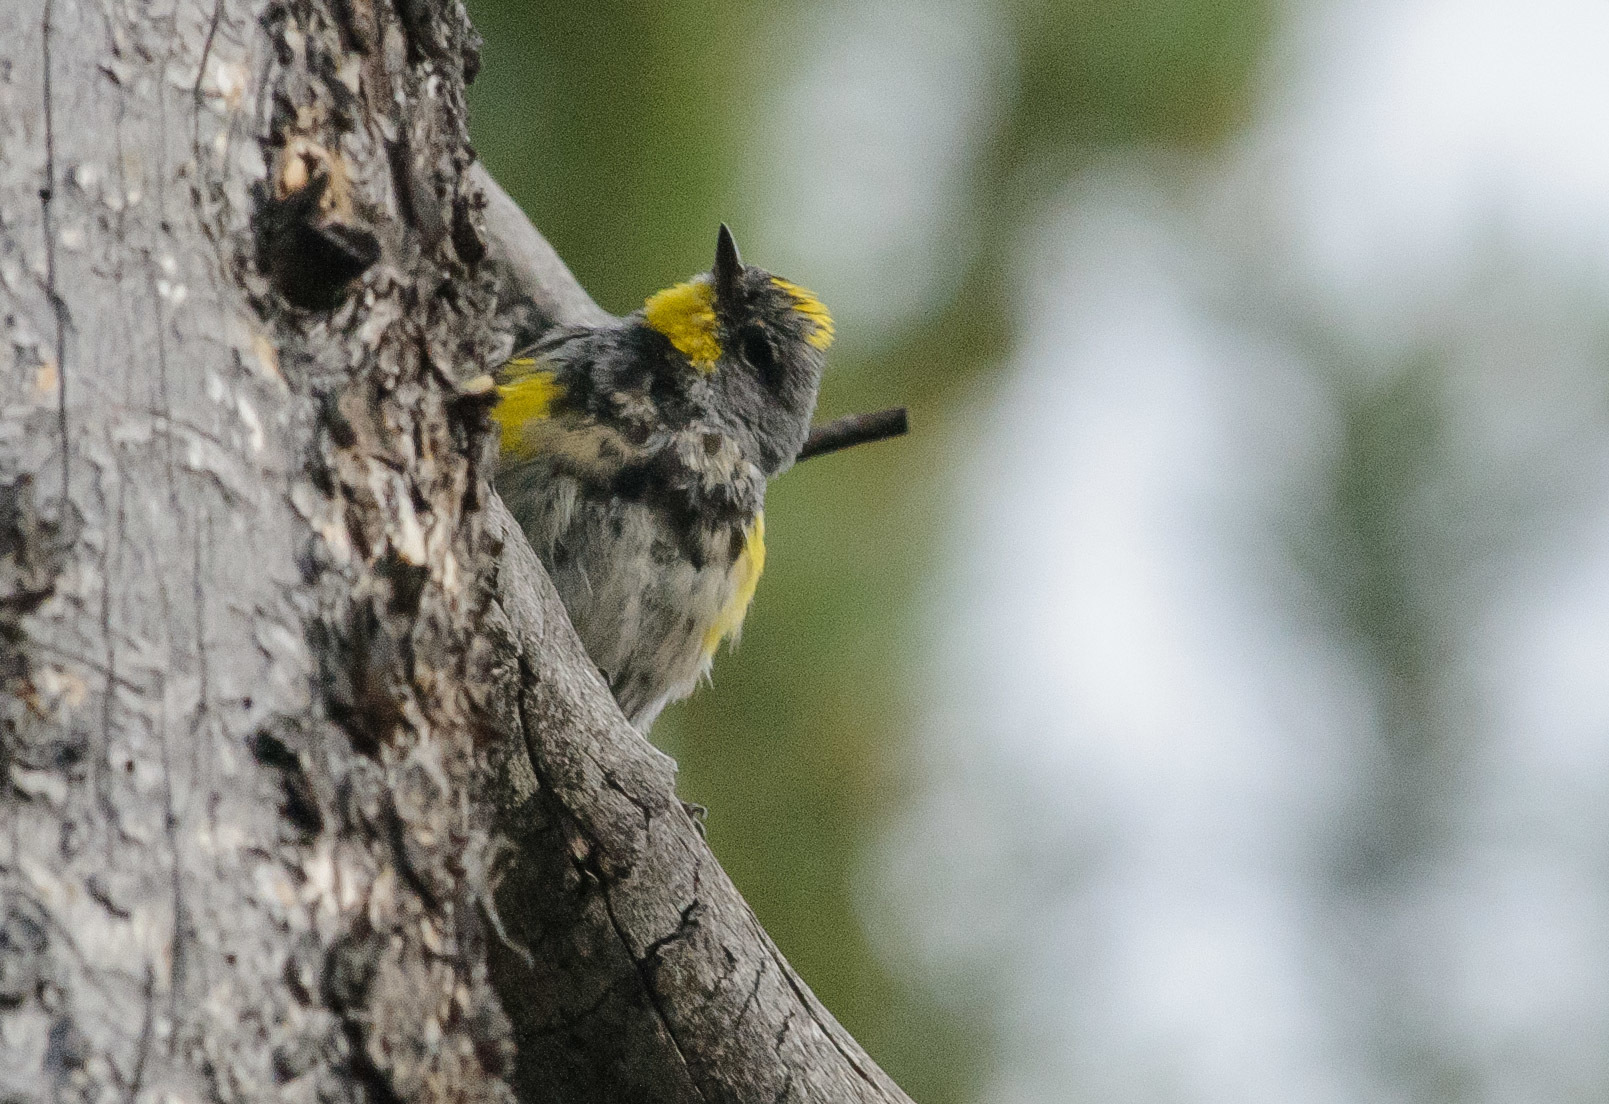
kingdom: Animalia
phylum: Chordata
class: Aves
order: Passeriformes
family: Parulidae
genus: Setophaga
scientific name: Setophaga auduboni
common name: Audubon's warbler
